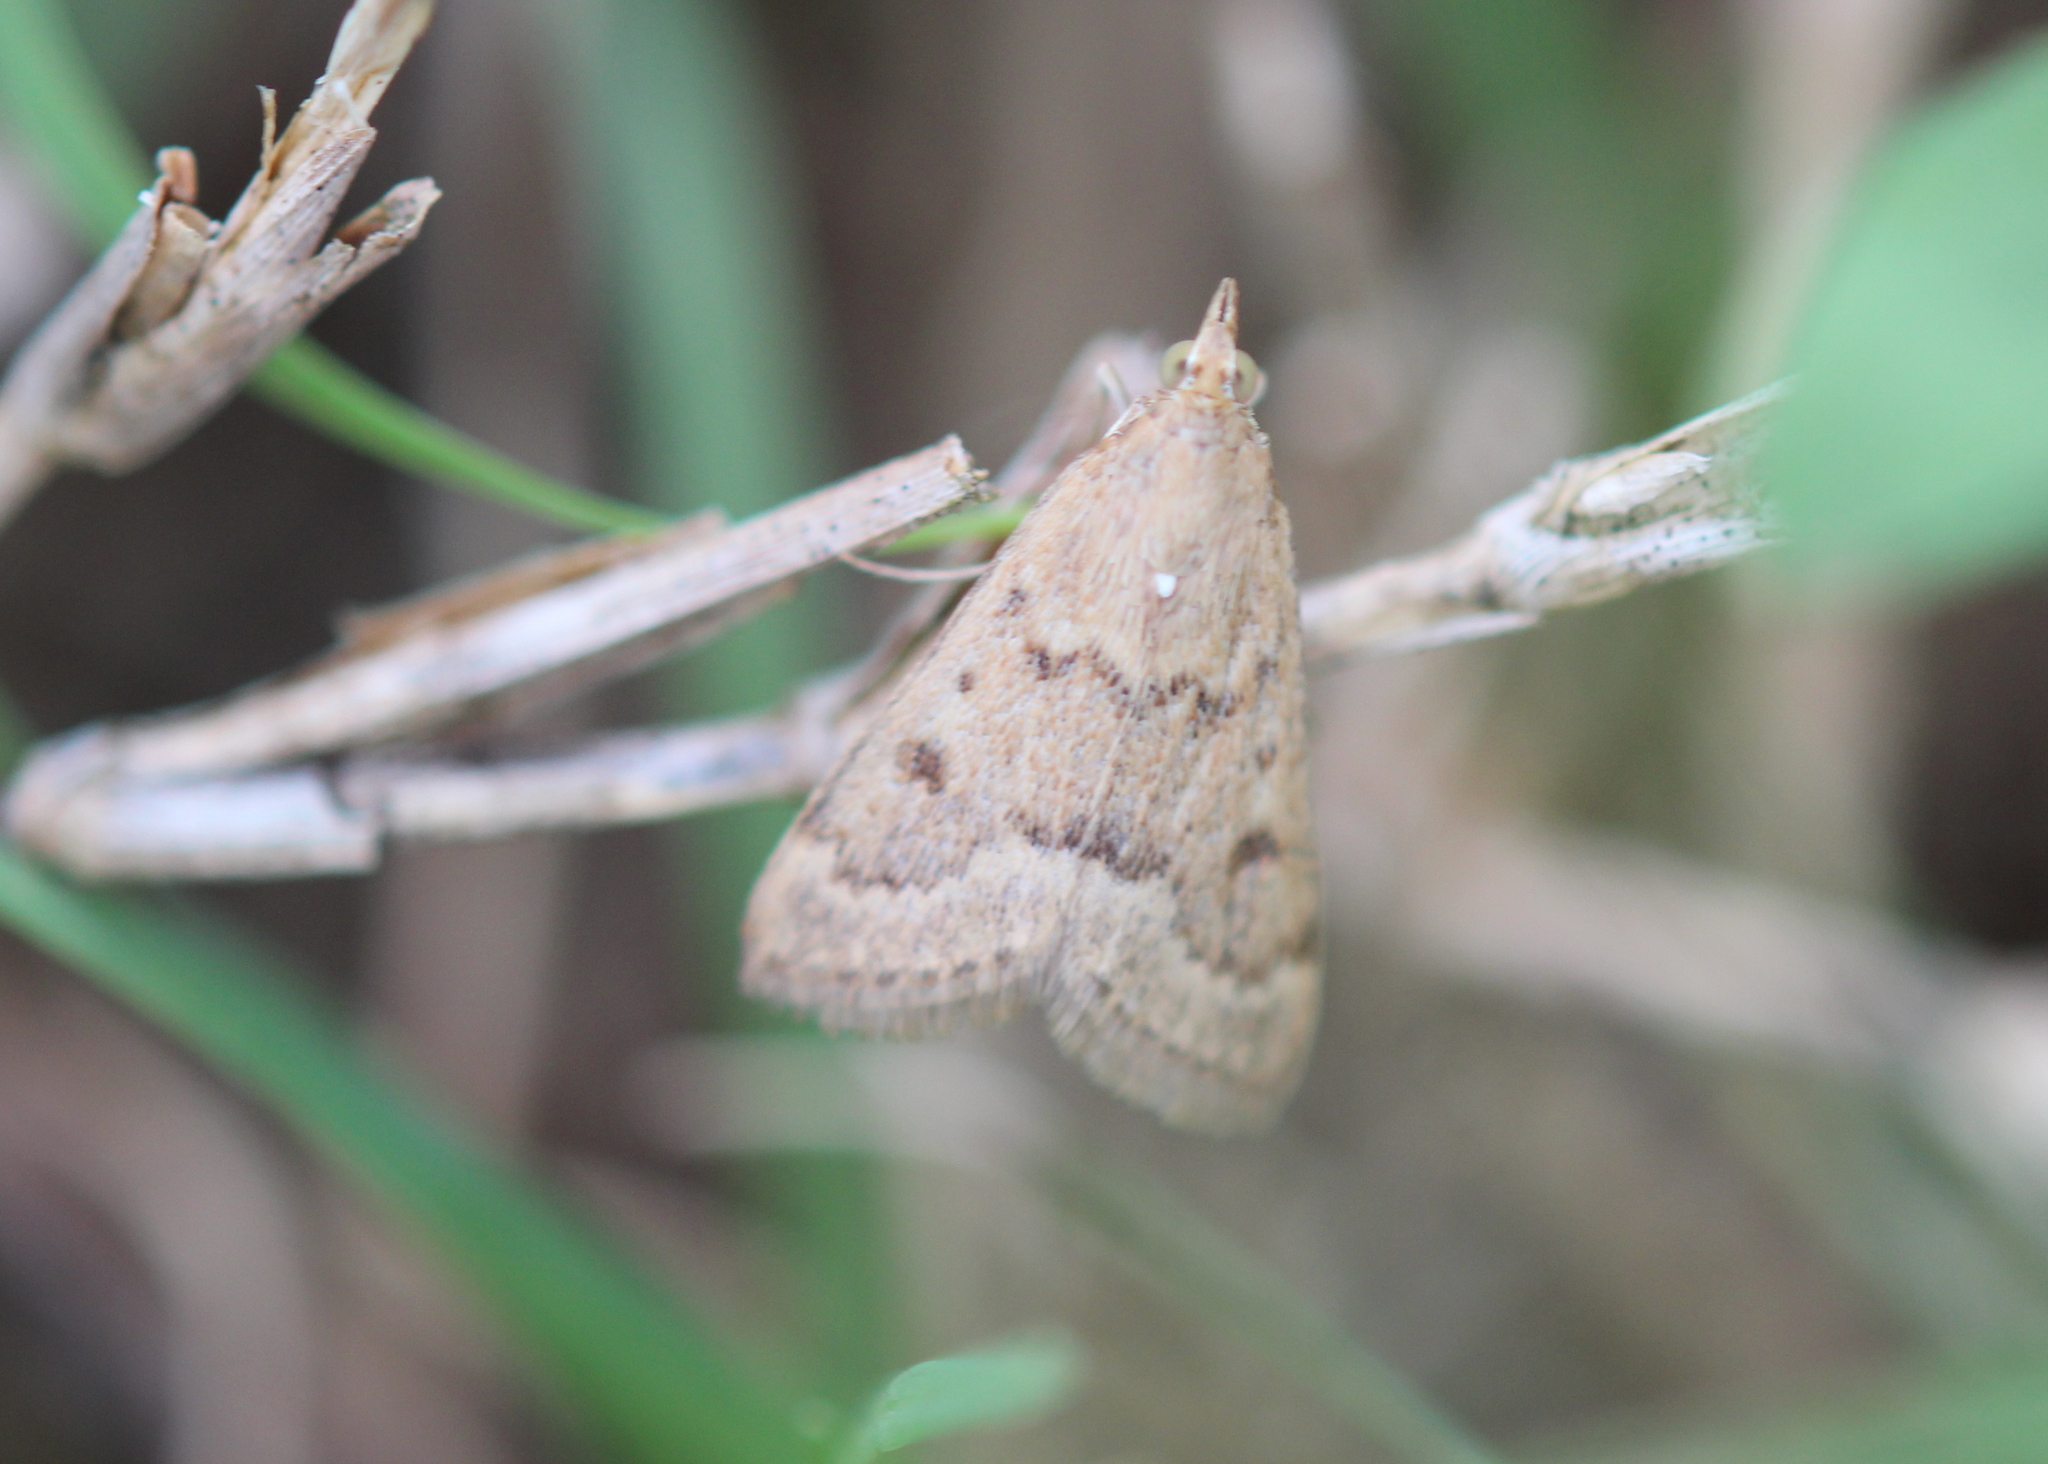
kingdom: Animalia
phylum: Arthropoda
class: Insecta
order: Lepidoptera
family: Crambidae
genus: Achyra
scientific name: Achyra rantalis
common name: Garden webworm
